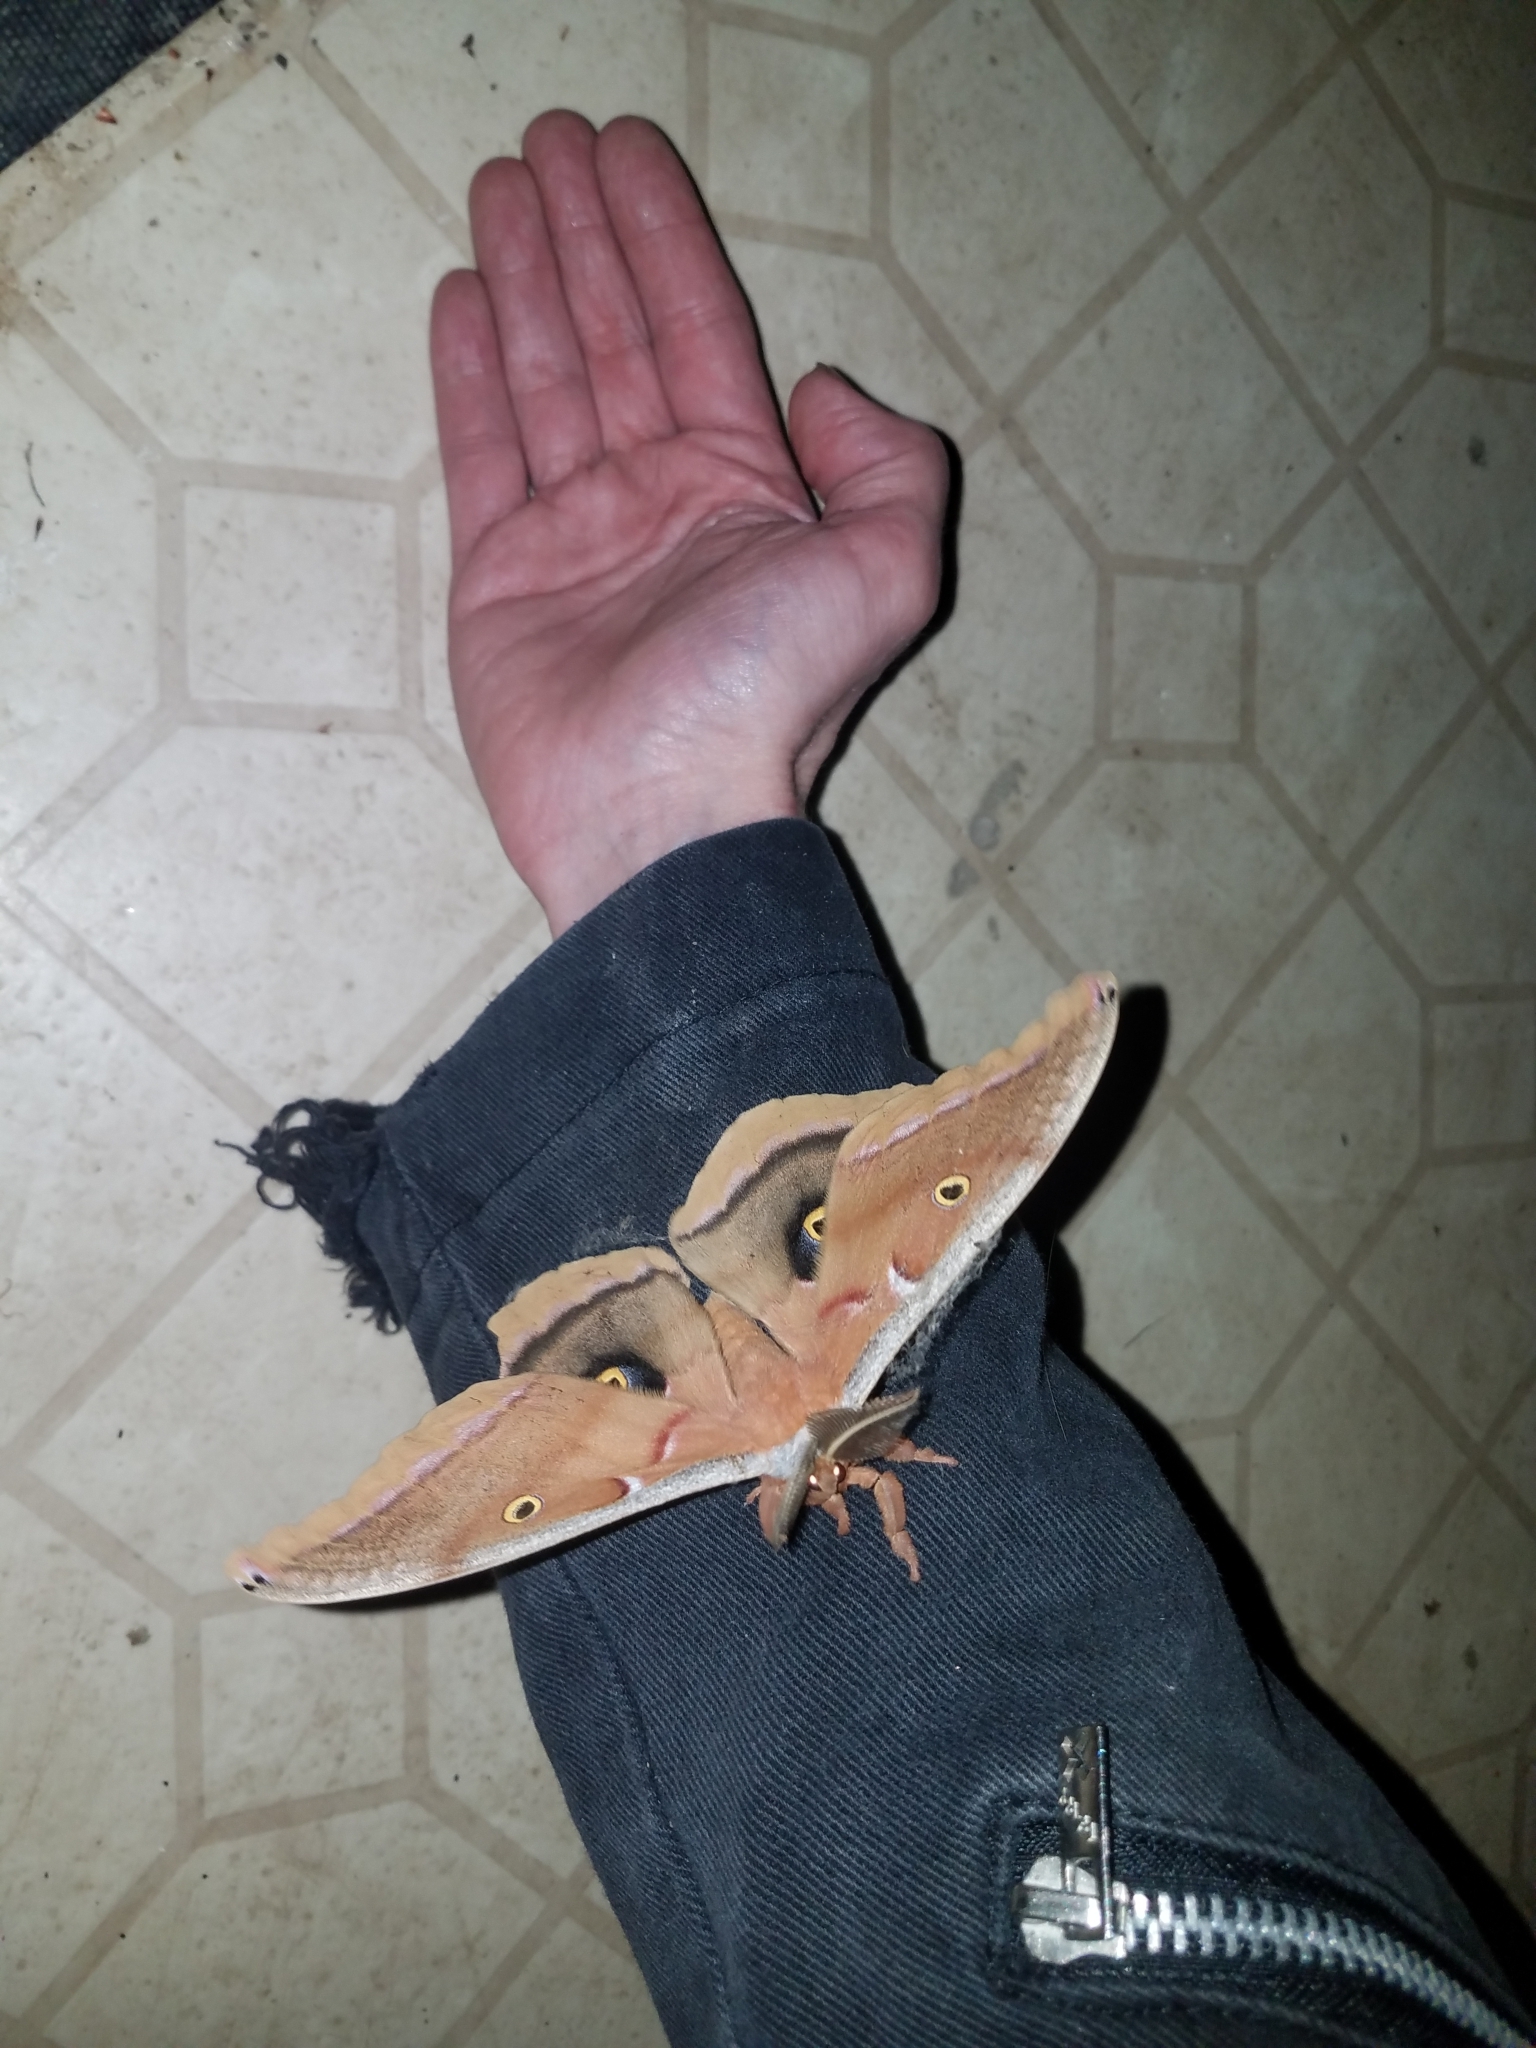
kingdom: Animalia
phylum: Arthropoda
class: Insecta
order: Lepidoptera
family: Saturniidae
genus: Antheraea
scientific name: Antheraea polyphemus
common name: Polyphemus moth
